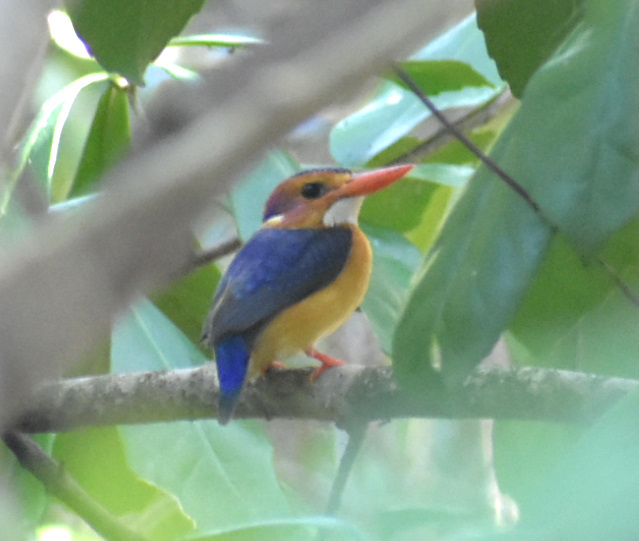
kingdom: Animalia
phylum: Chordata
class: Aves
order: Coraciiformes
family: Alcedinidae
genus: Ispidina
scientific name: Ispidina picta
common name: African pygmy-kingfisher
